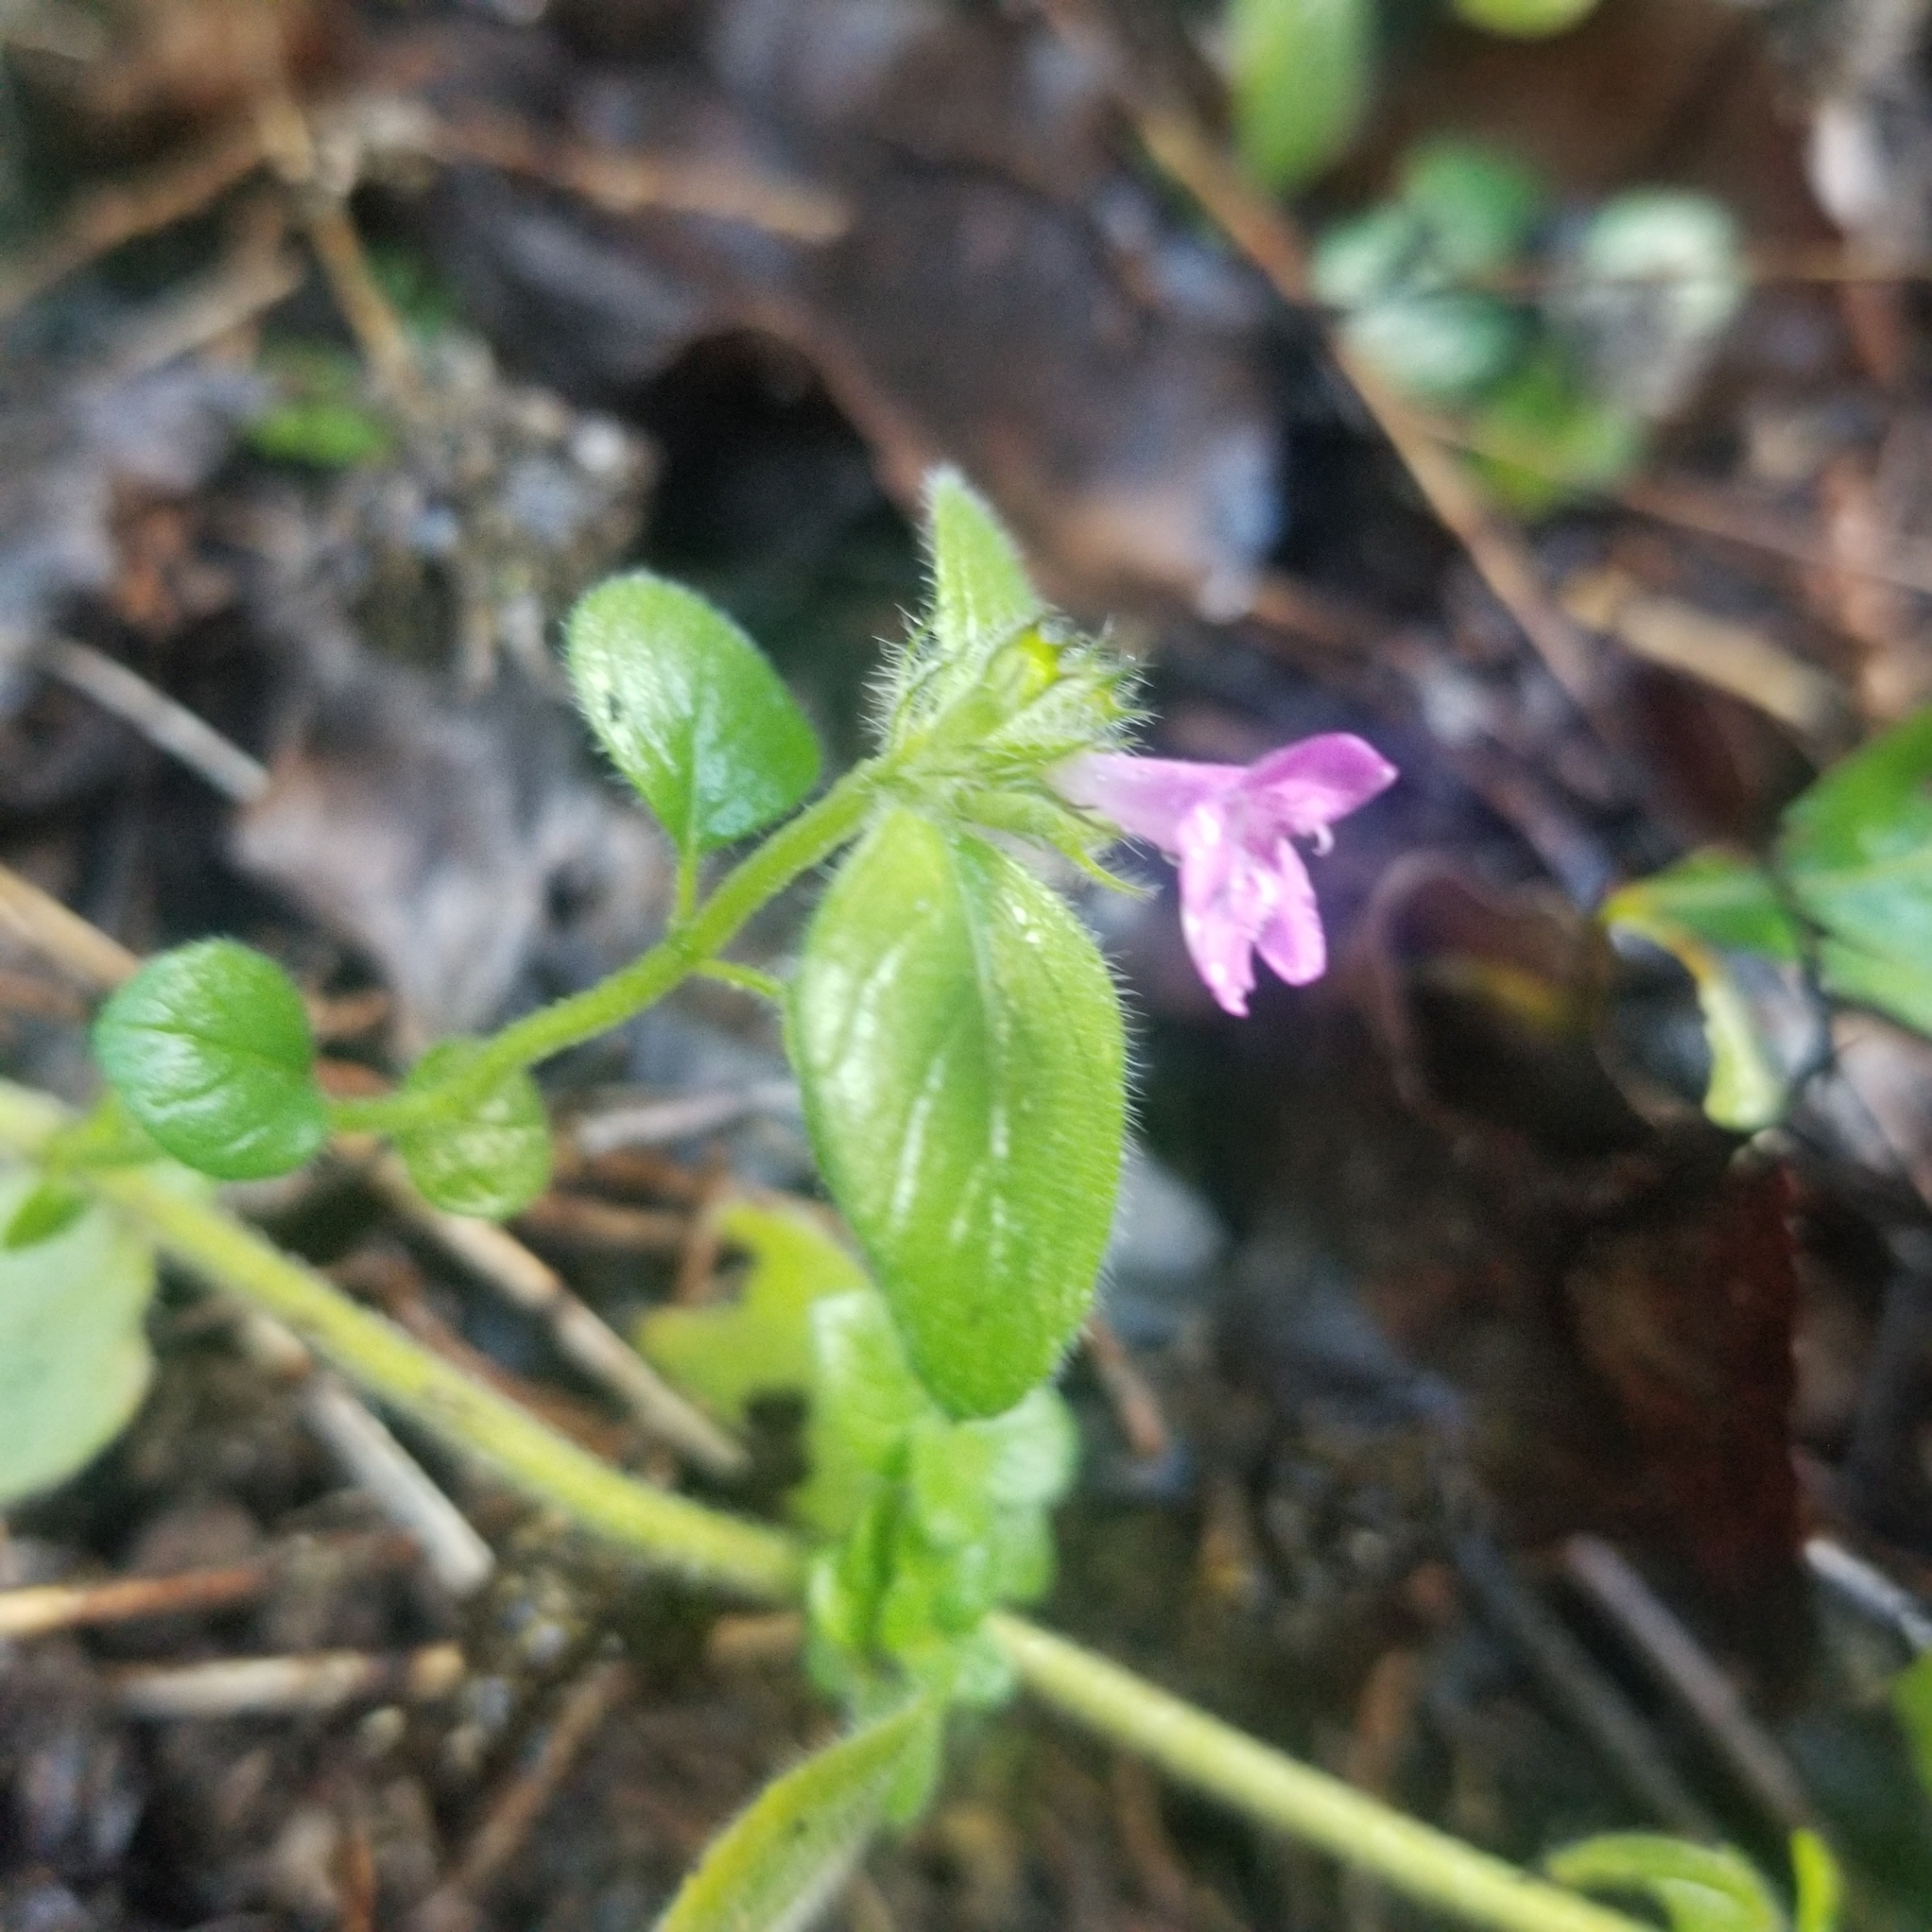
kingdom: Plantae
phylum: Tracheophyta
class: Magnoliopsida
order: Lamiales
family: Lamiaceae
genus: Clinopodium
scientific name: Clinopodium vulgare
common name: Wild basil
